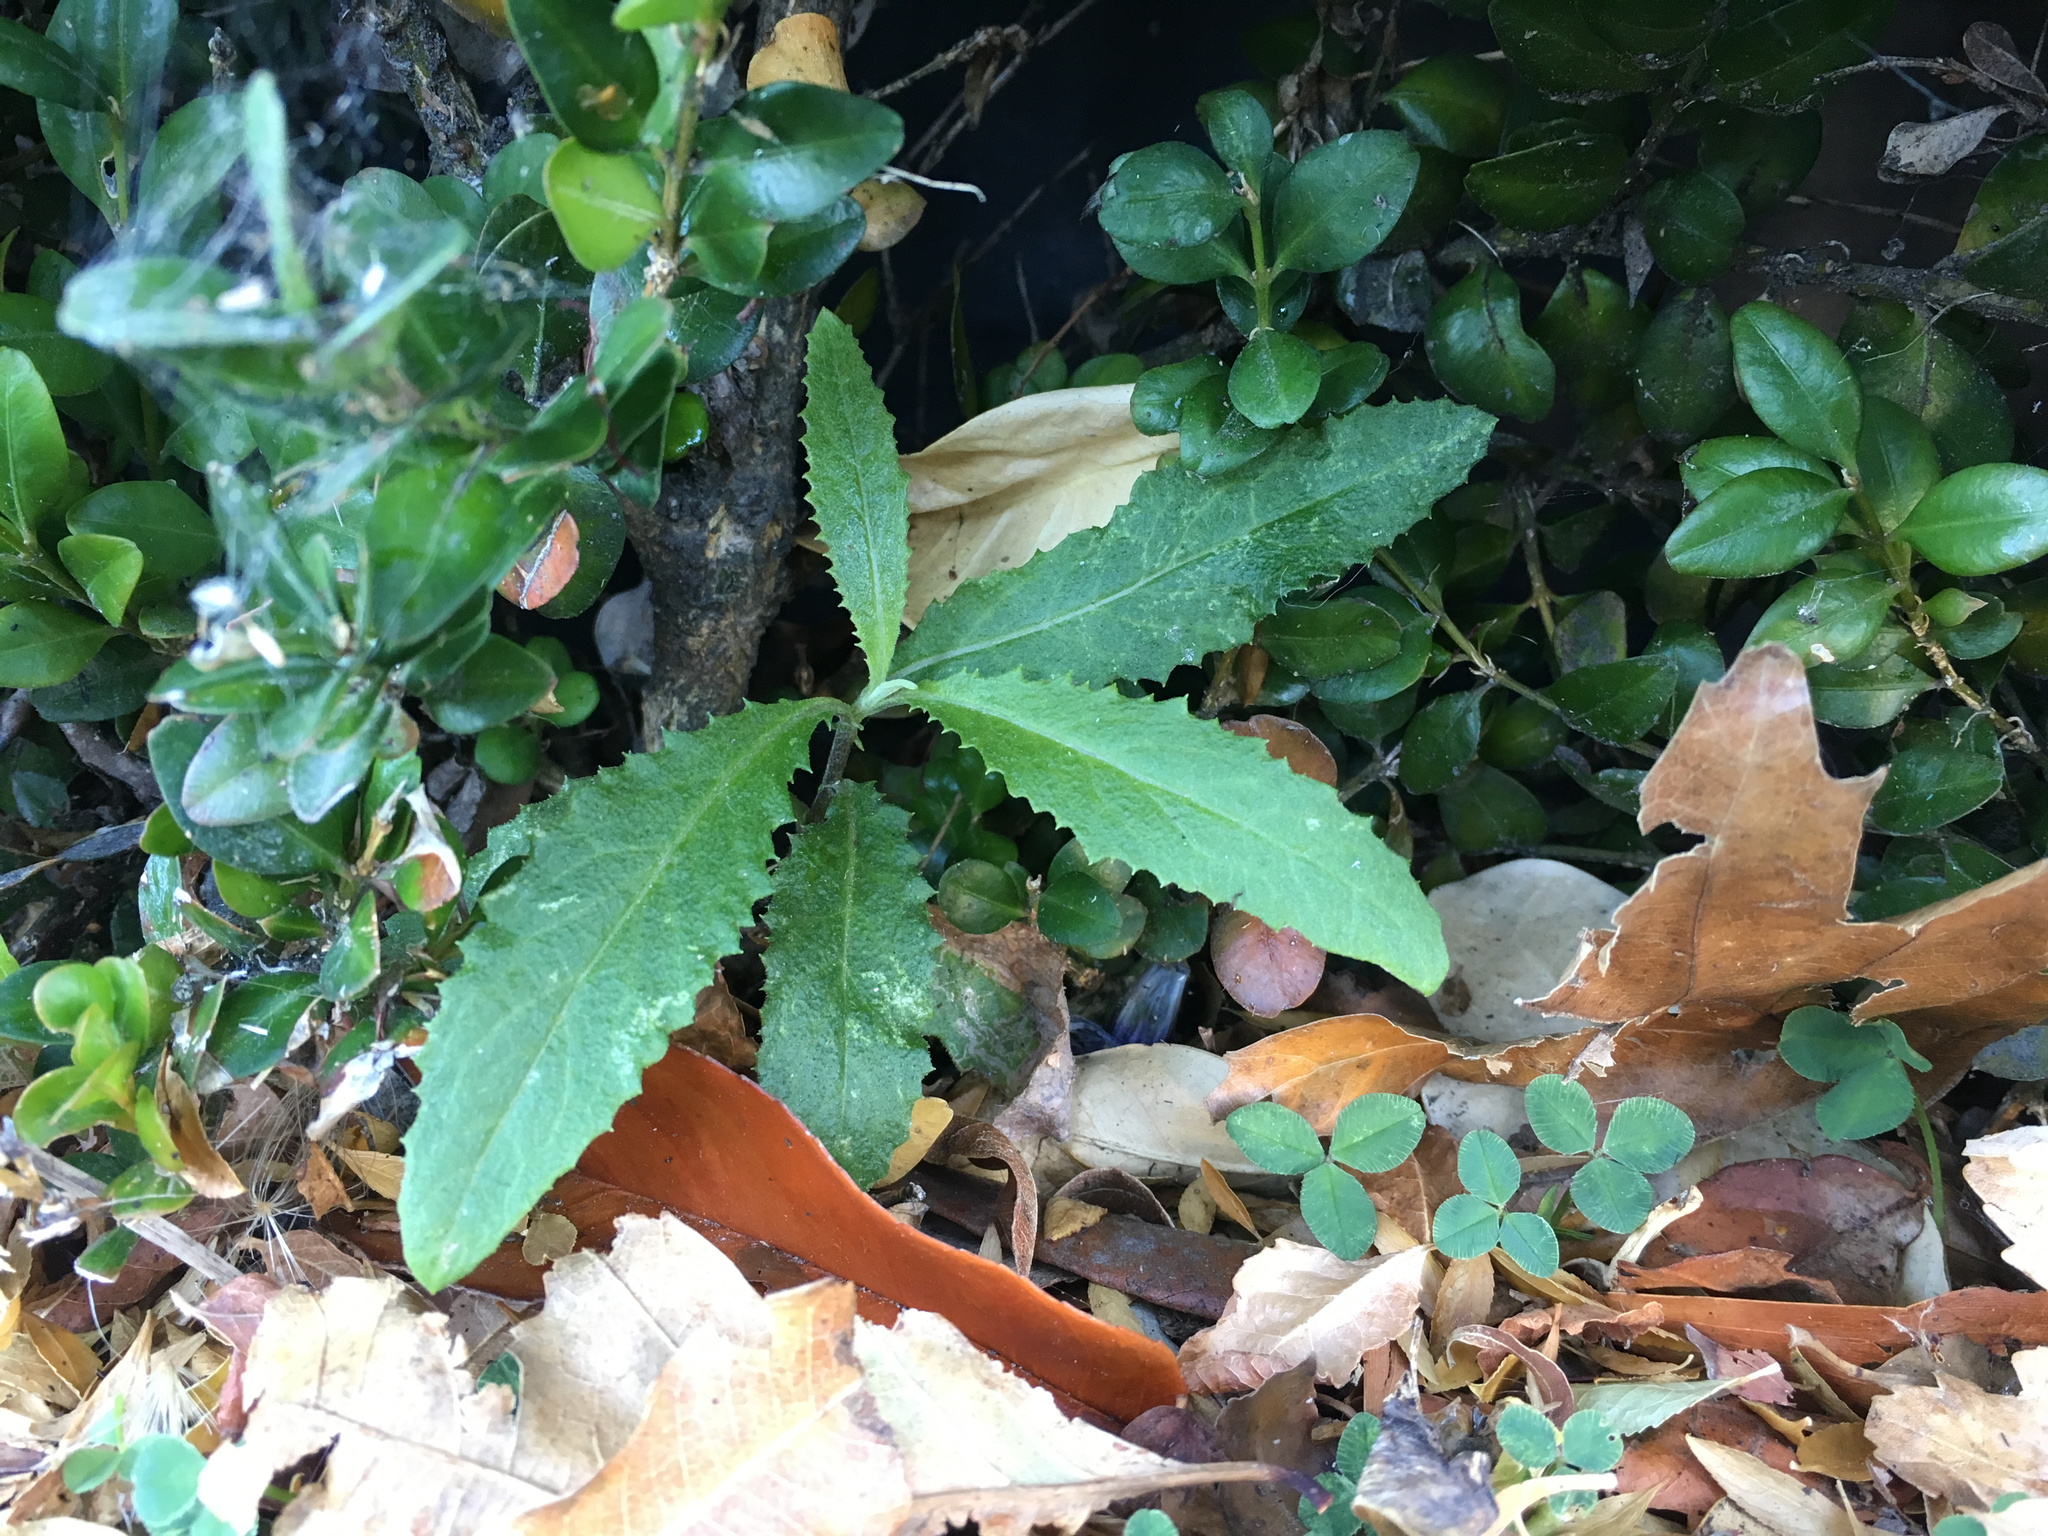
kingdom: Plantae
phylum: Tracheophyta
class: Magnoliopsida
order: Asterales
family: Asteraceae
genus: Senecio
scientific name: Senecio minimus
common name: Toothed fireweed
